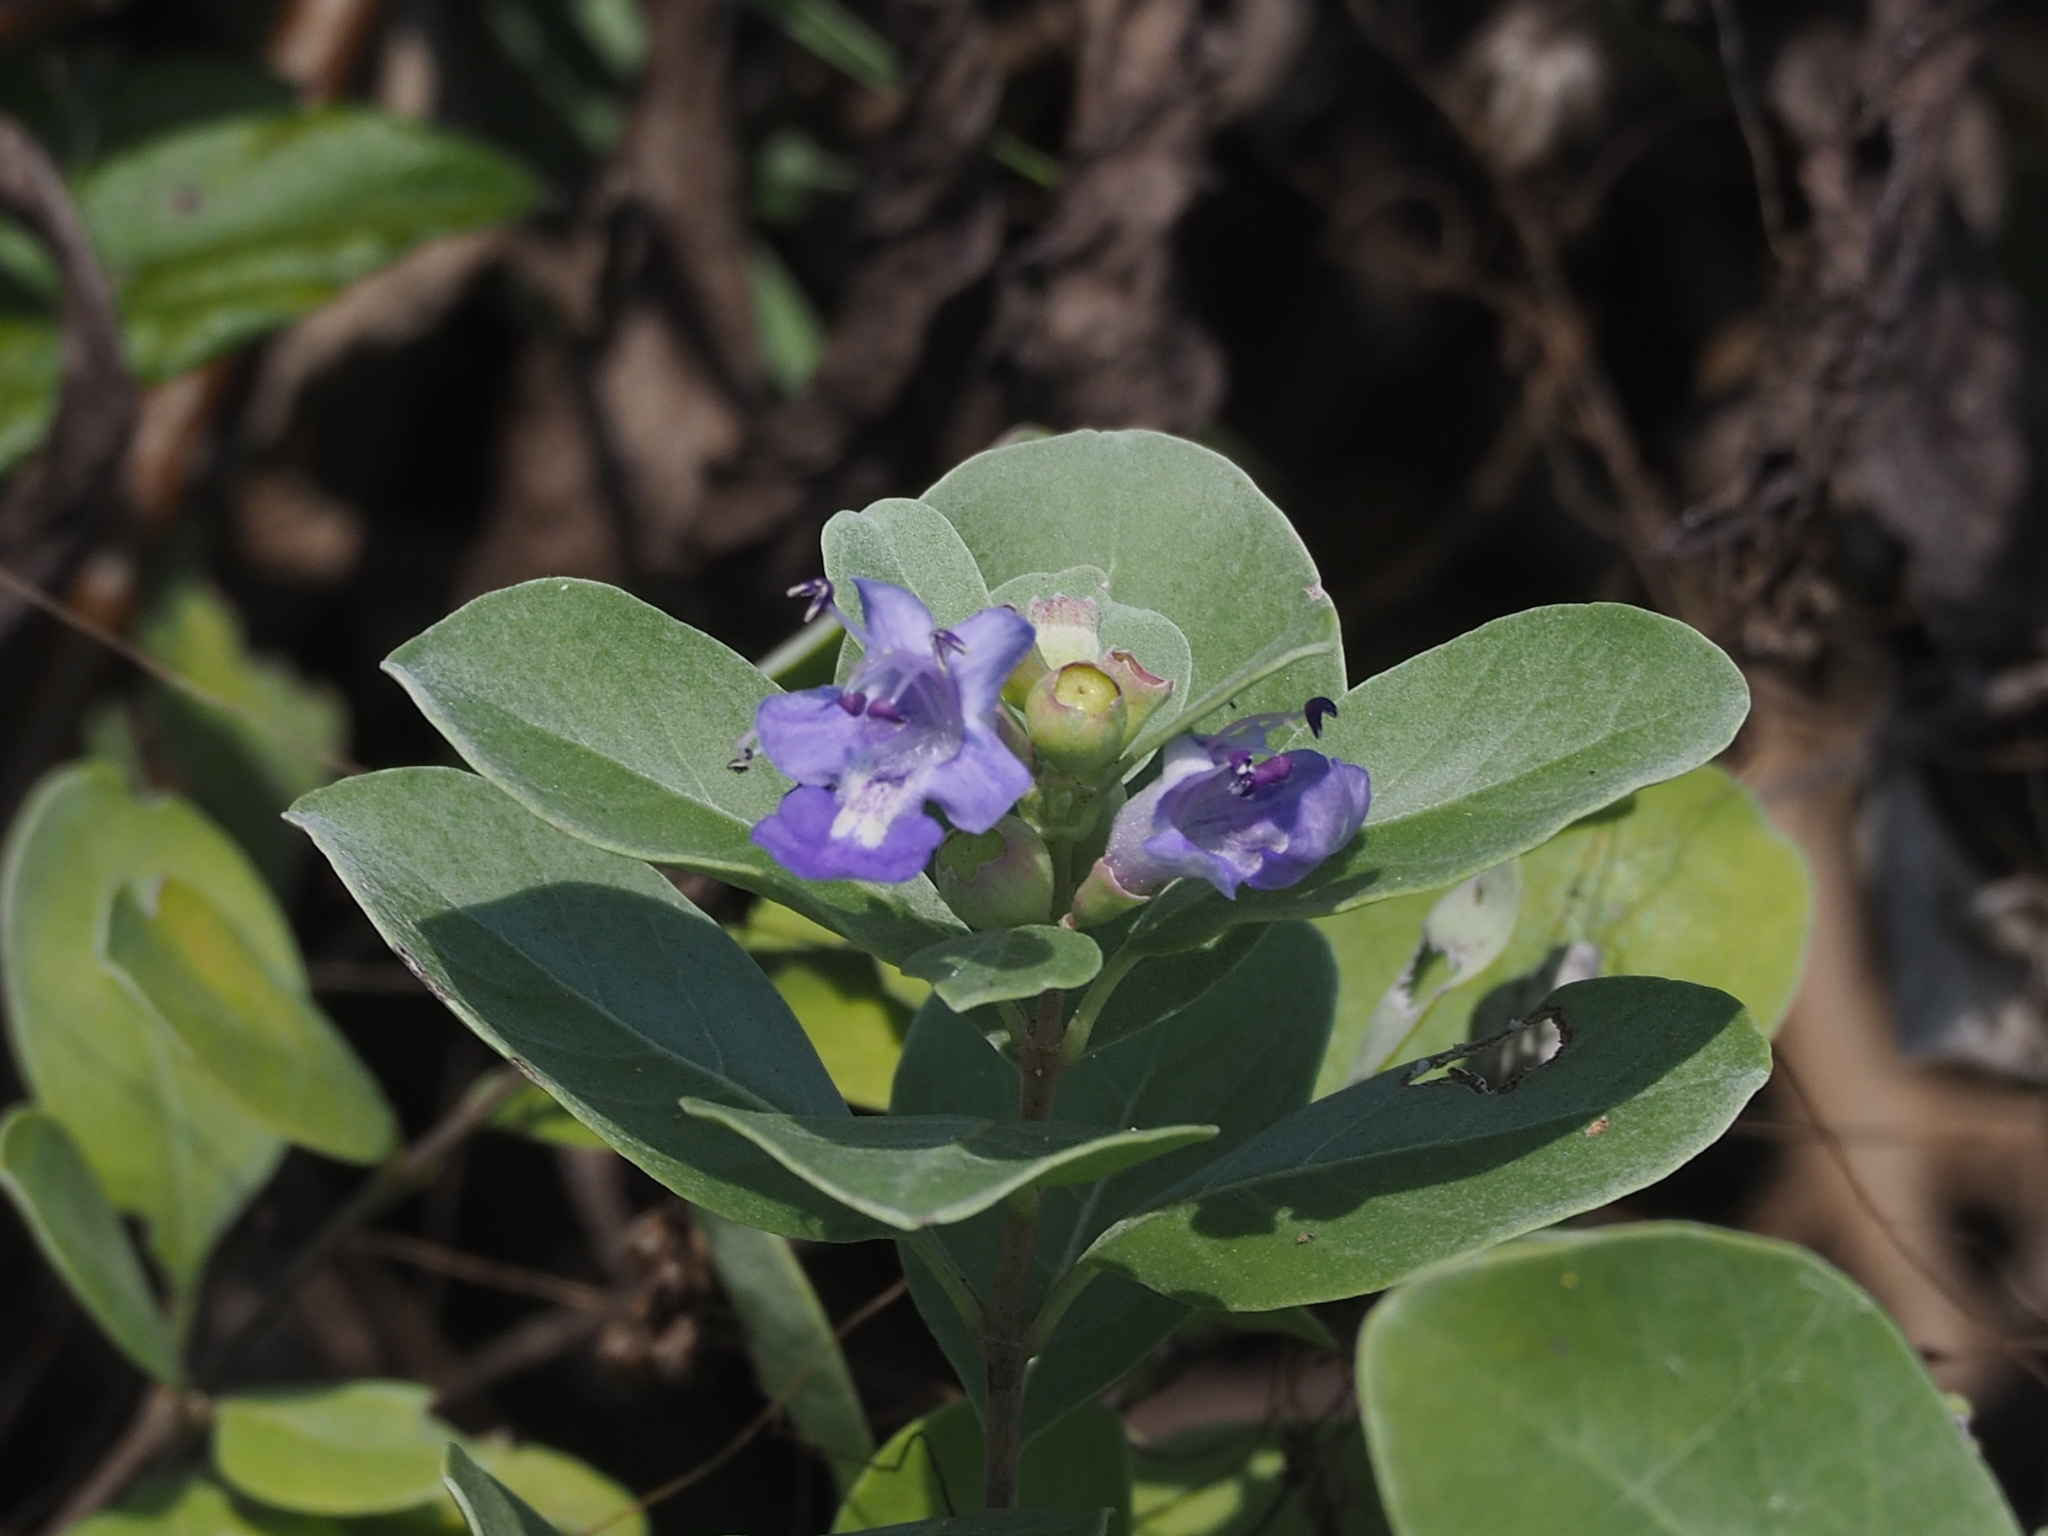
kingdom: Plantae
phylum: Tracheophyta
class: Magnoliopsida
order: Lamiales
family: Lamiaceae
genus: Vitex
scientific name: Vitex rotundifolia
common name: Beach vitex
